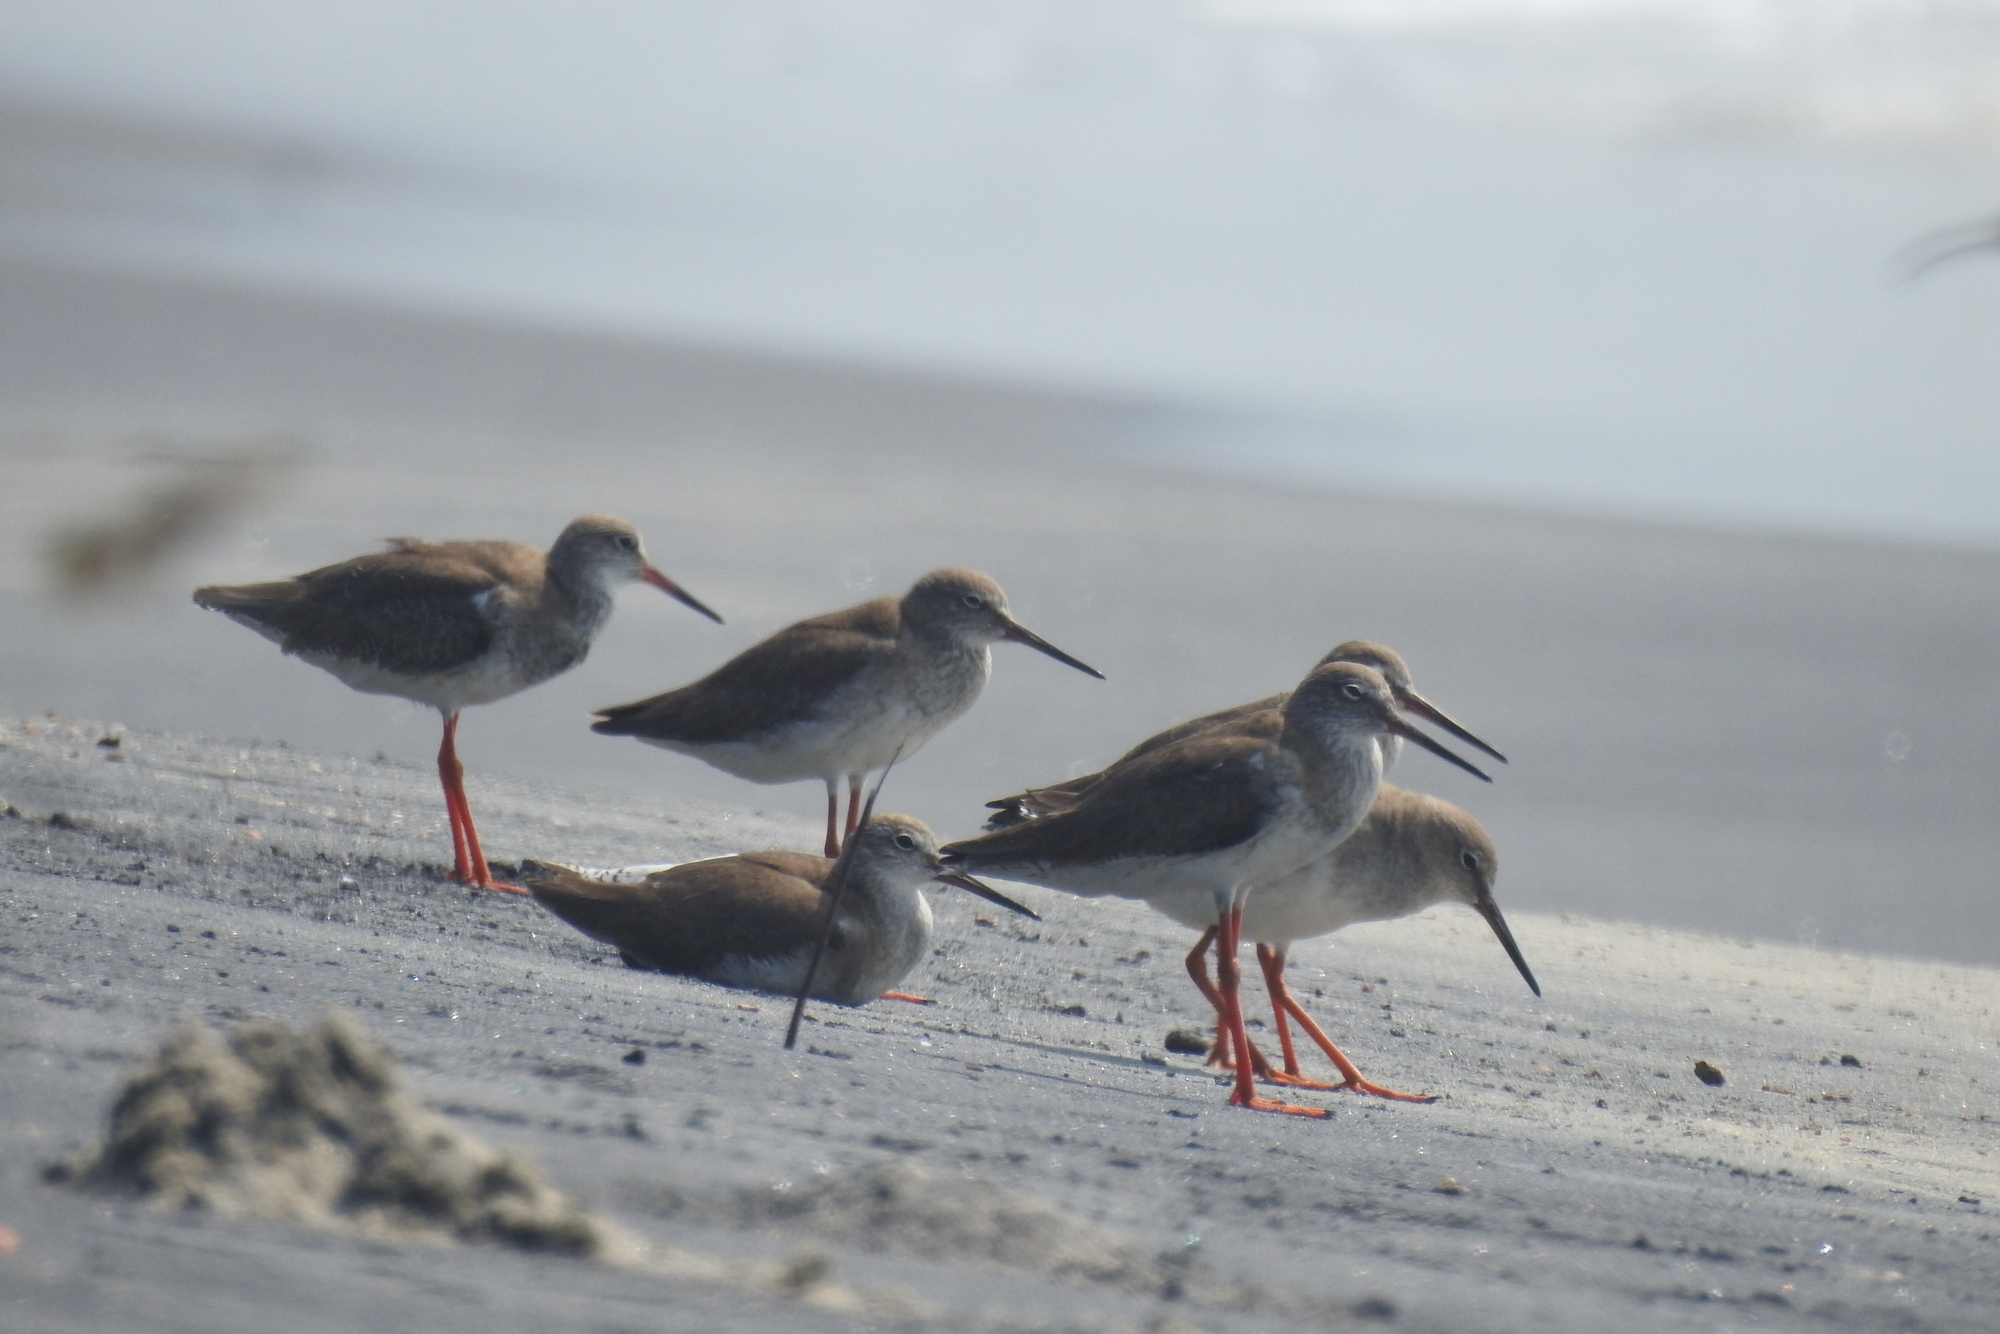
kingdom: Animalia
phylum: Chordata
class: Aves
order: Charadriiformes
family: Scolopacidae
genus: Tringa
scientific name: Tringa totanus
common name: Common redshank
